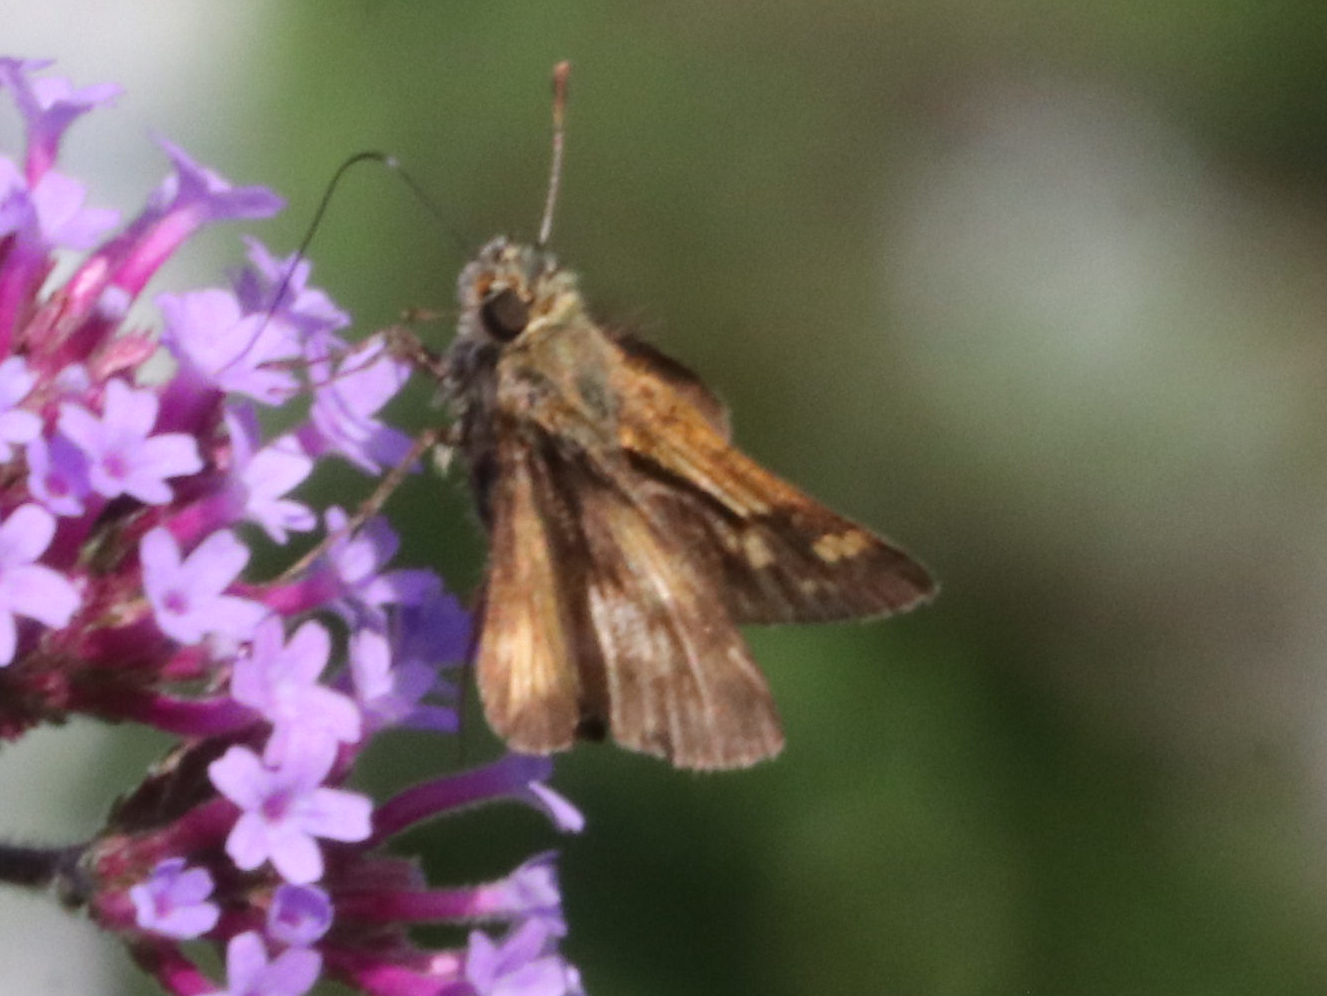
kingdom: Animalia
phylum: Arthropoda
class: Insecta
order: Lepidoptera
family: Hesperiidae
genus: Polites
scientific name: Polites coras
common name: Peck's skipper
